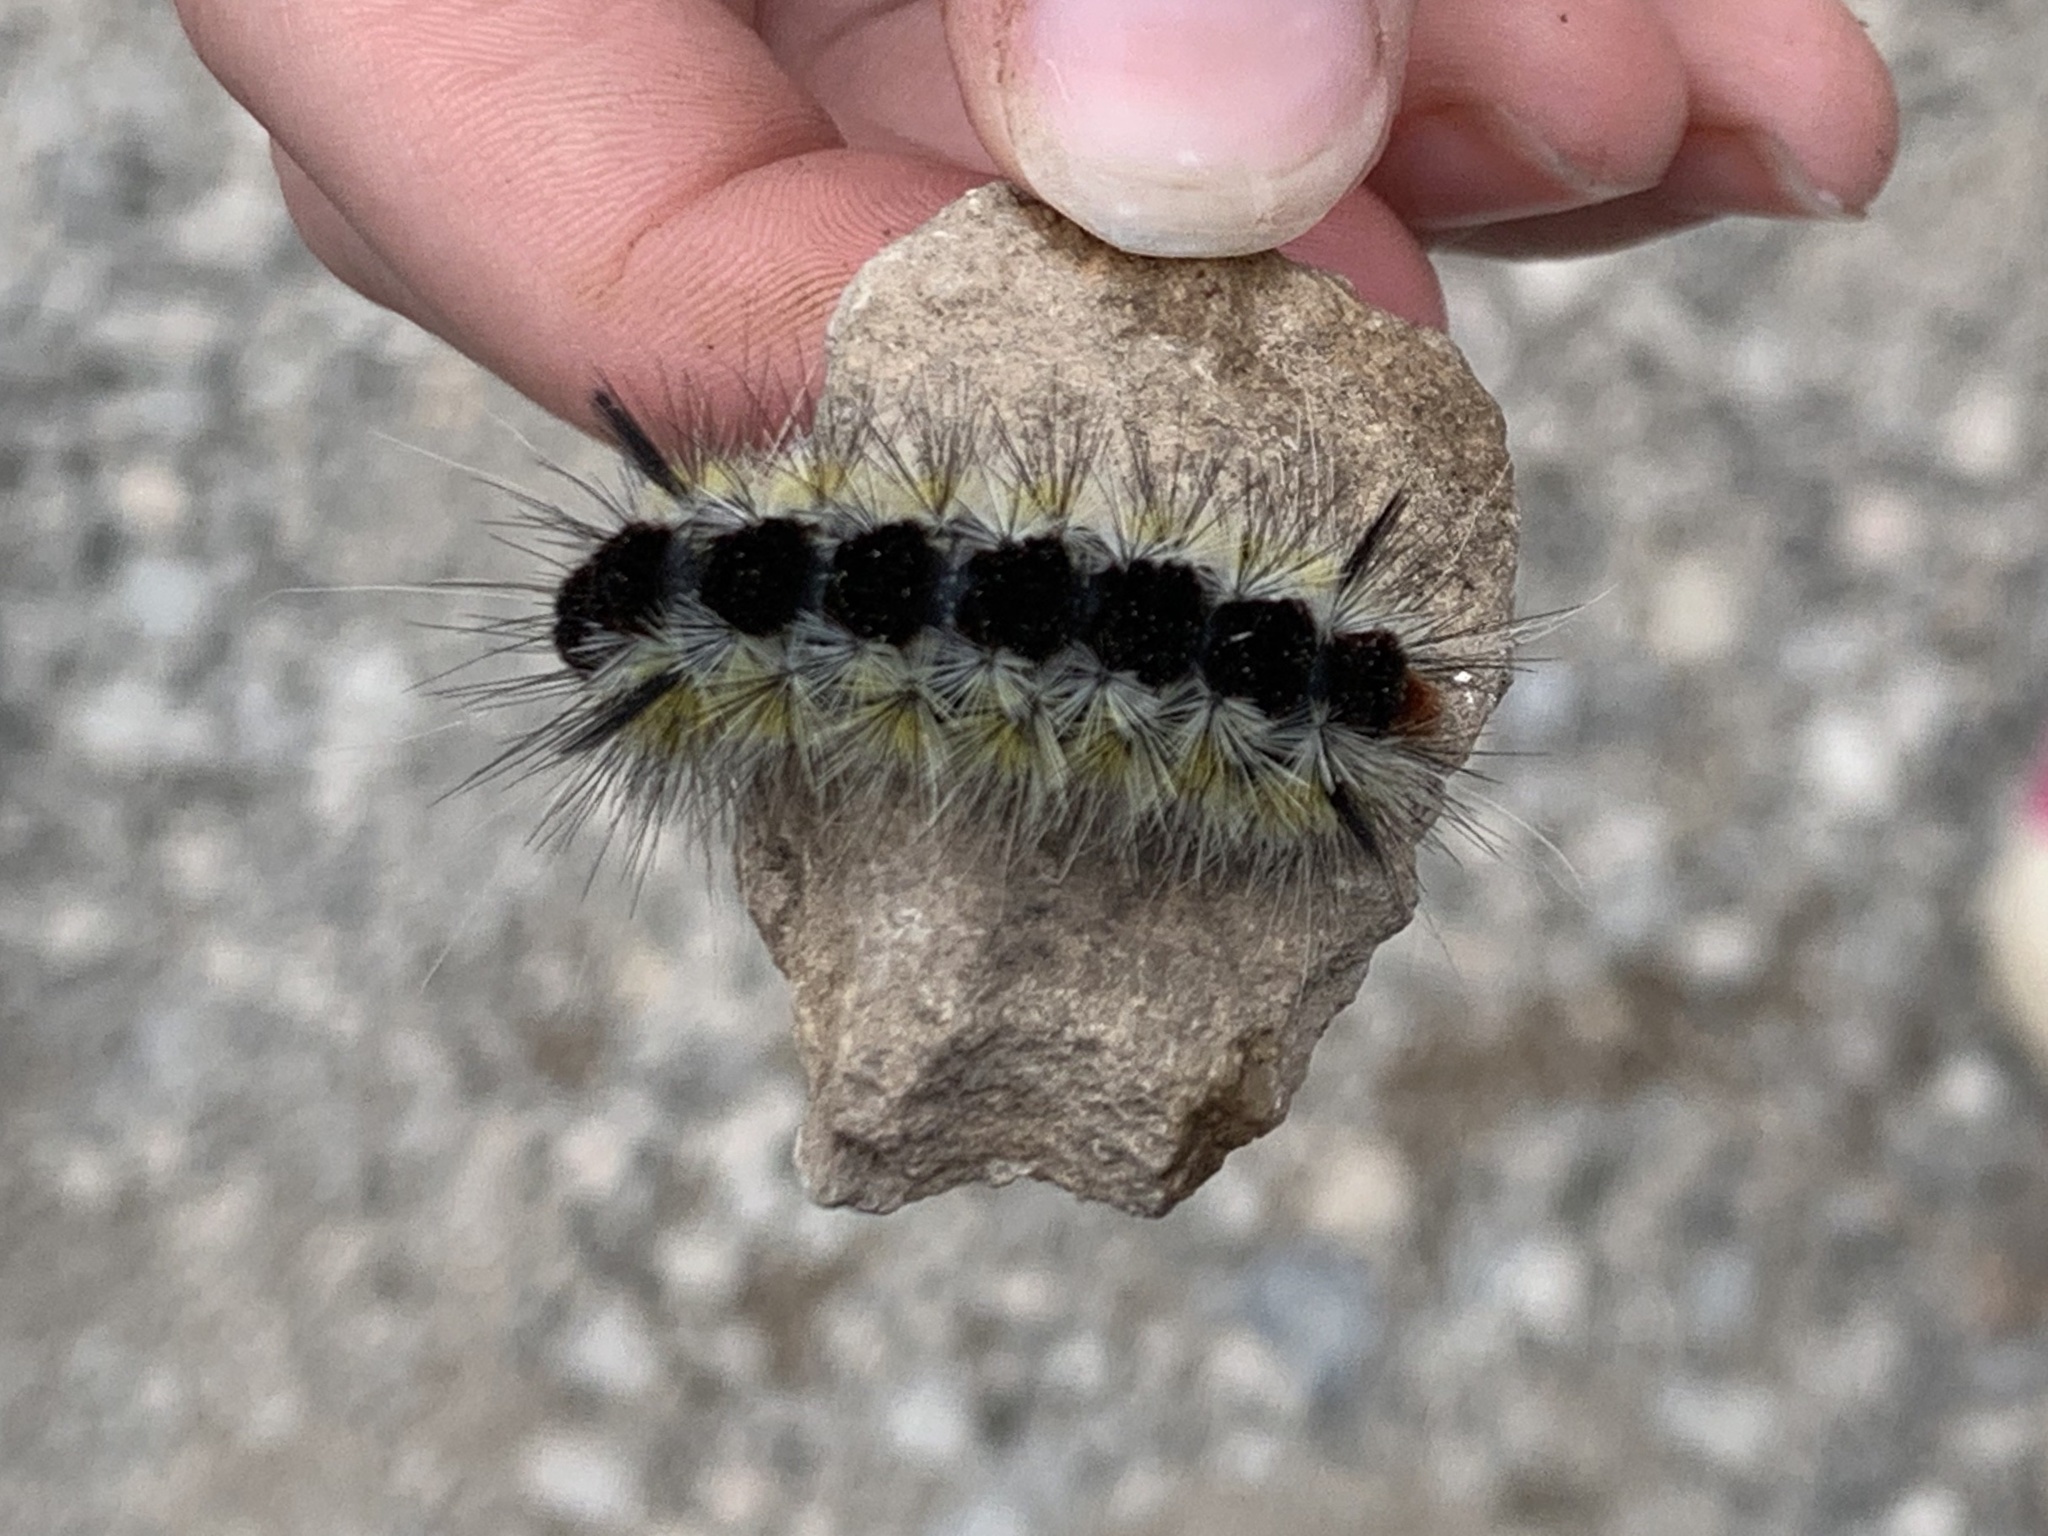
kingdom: Animalia
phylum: Arthropoda
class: Insecta
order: Lepidoptera
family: Erebidae
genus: Lophocampa
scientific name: Lophocampa ingens
